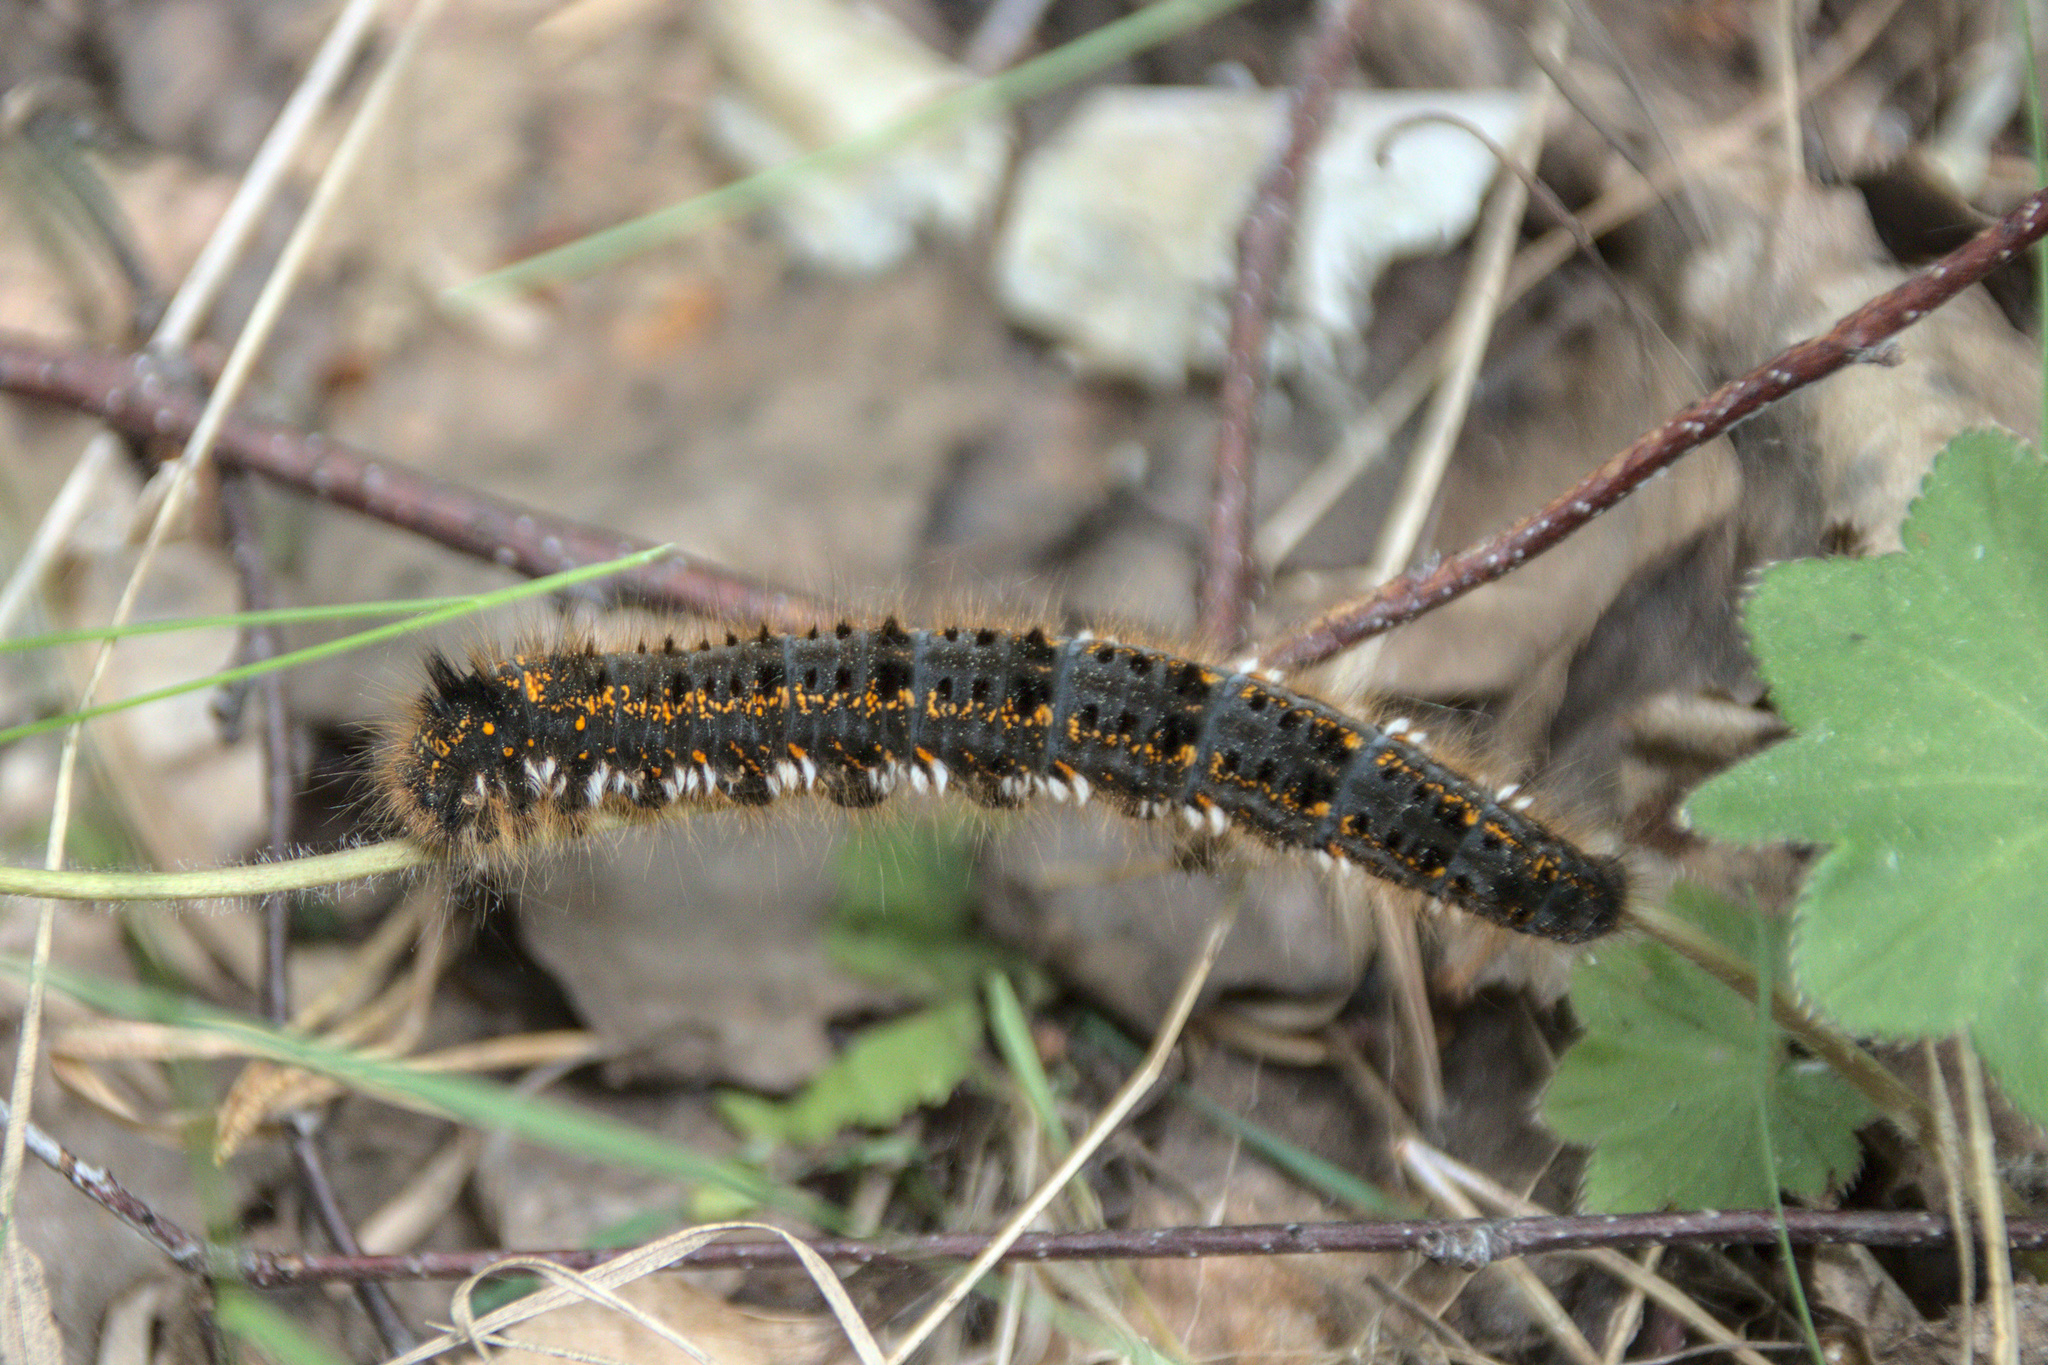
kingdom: Animalia
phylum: Arthropoda
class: Insecta
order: Lepidoptera
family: Lasiocampidae
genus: Euthrix
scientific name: Euthrix potatoria
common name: Drinker
